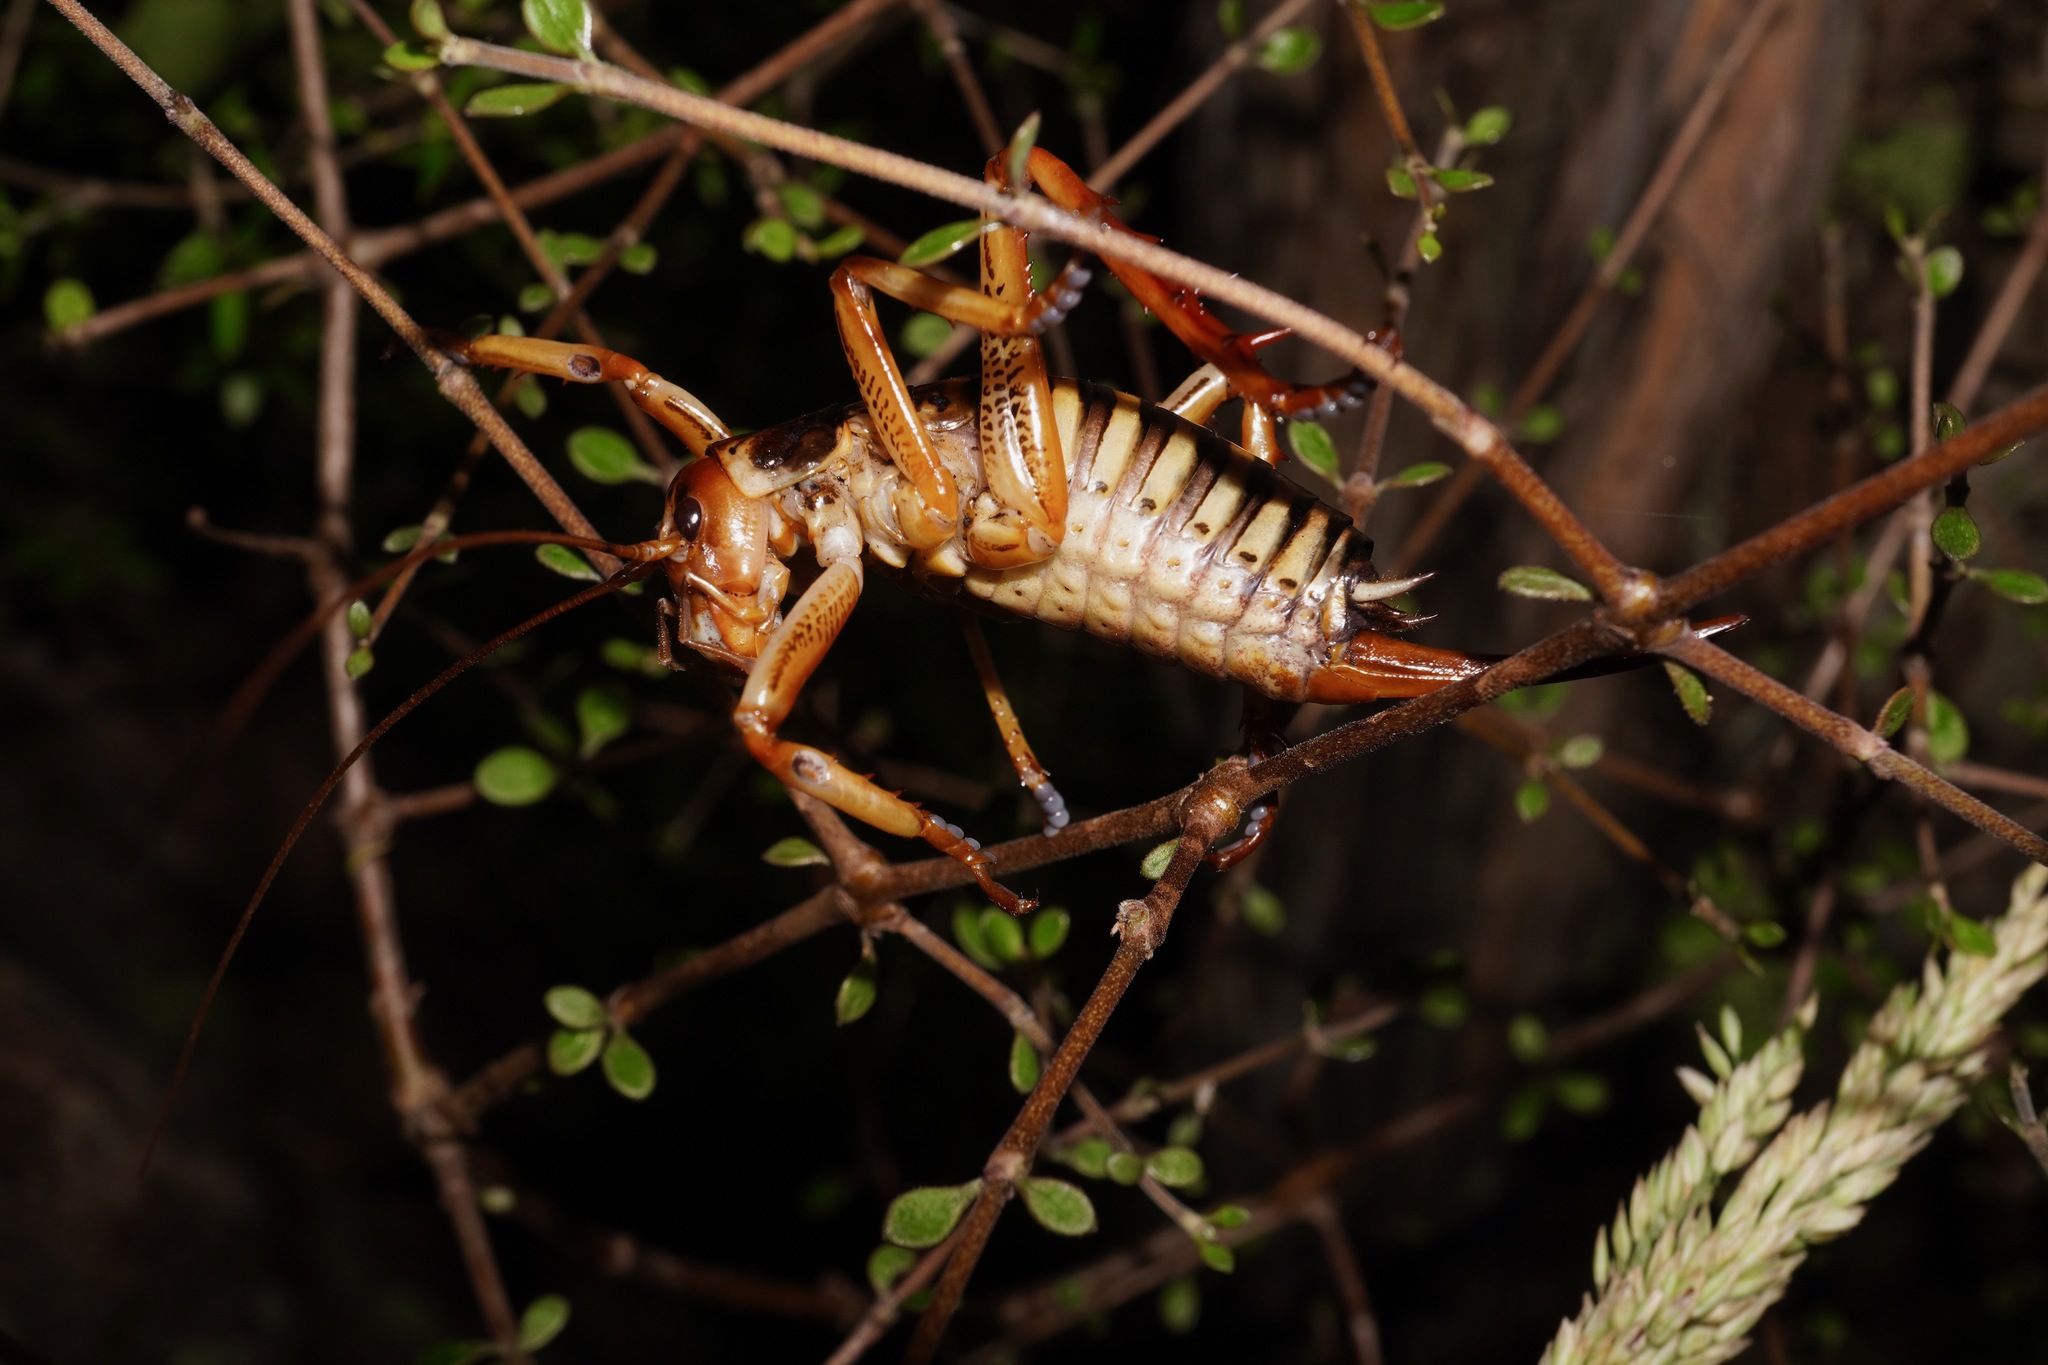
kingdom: Animalia
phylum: Arthropoda
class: Insecta
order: Orthoptera
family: Anostostomatidae
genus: Hemideina
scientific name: Hemideina crassidens
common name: Wellington tree weta
